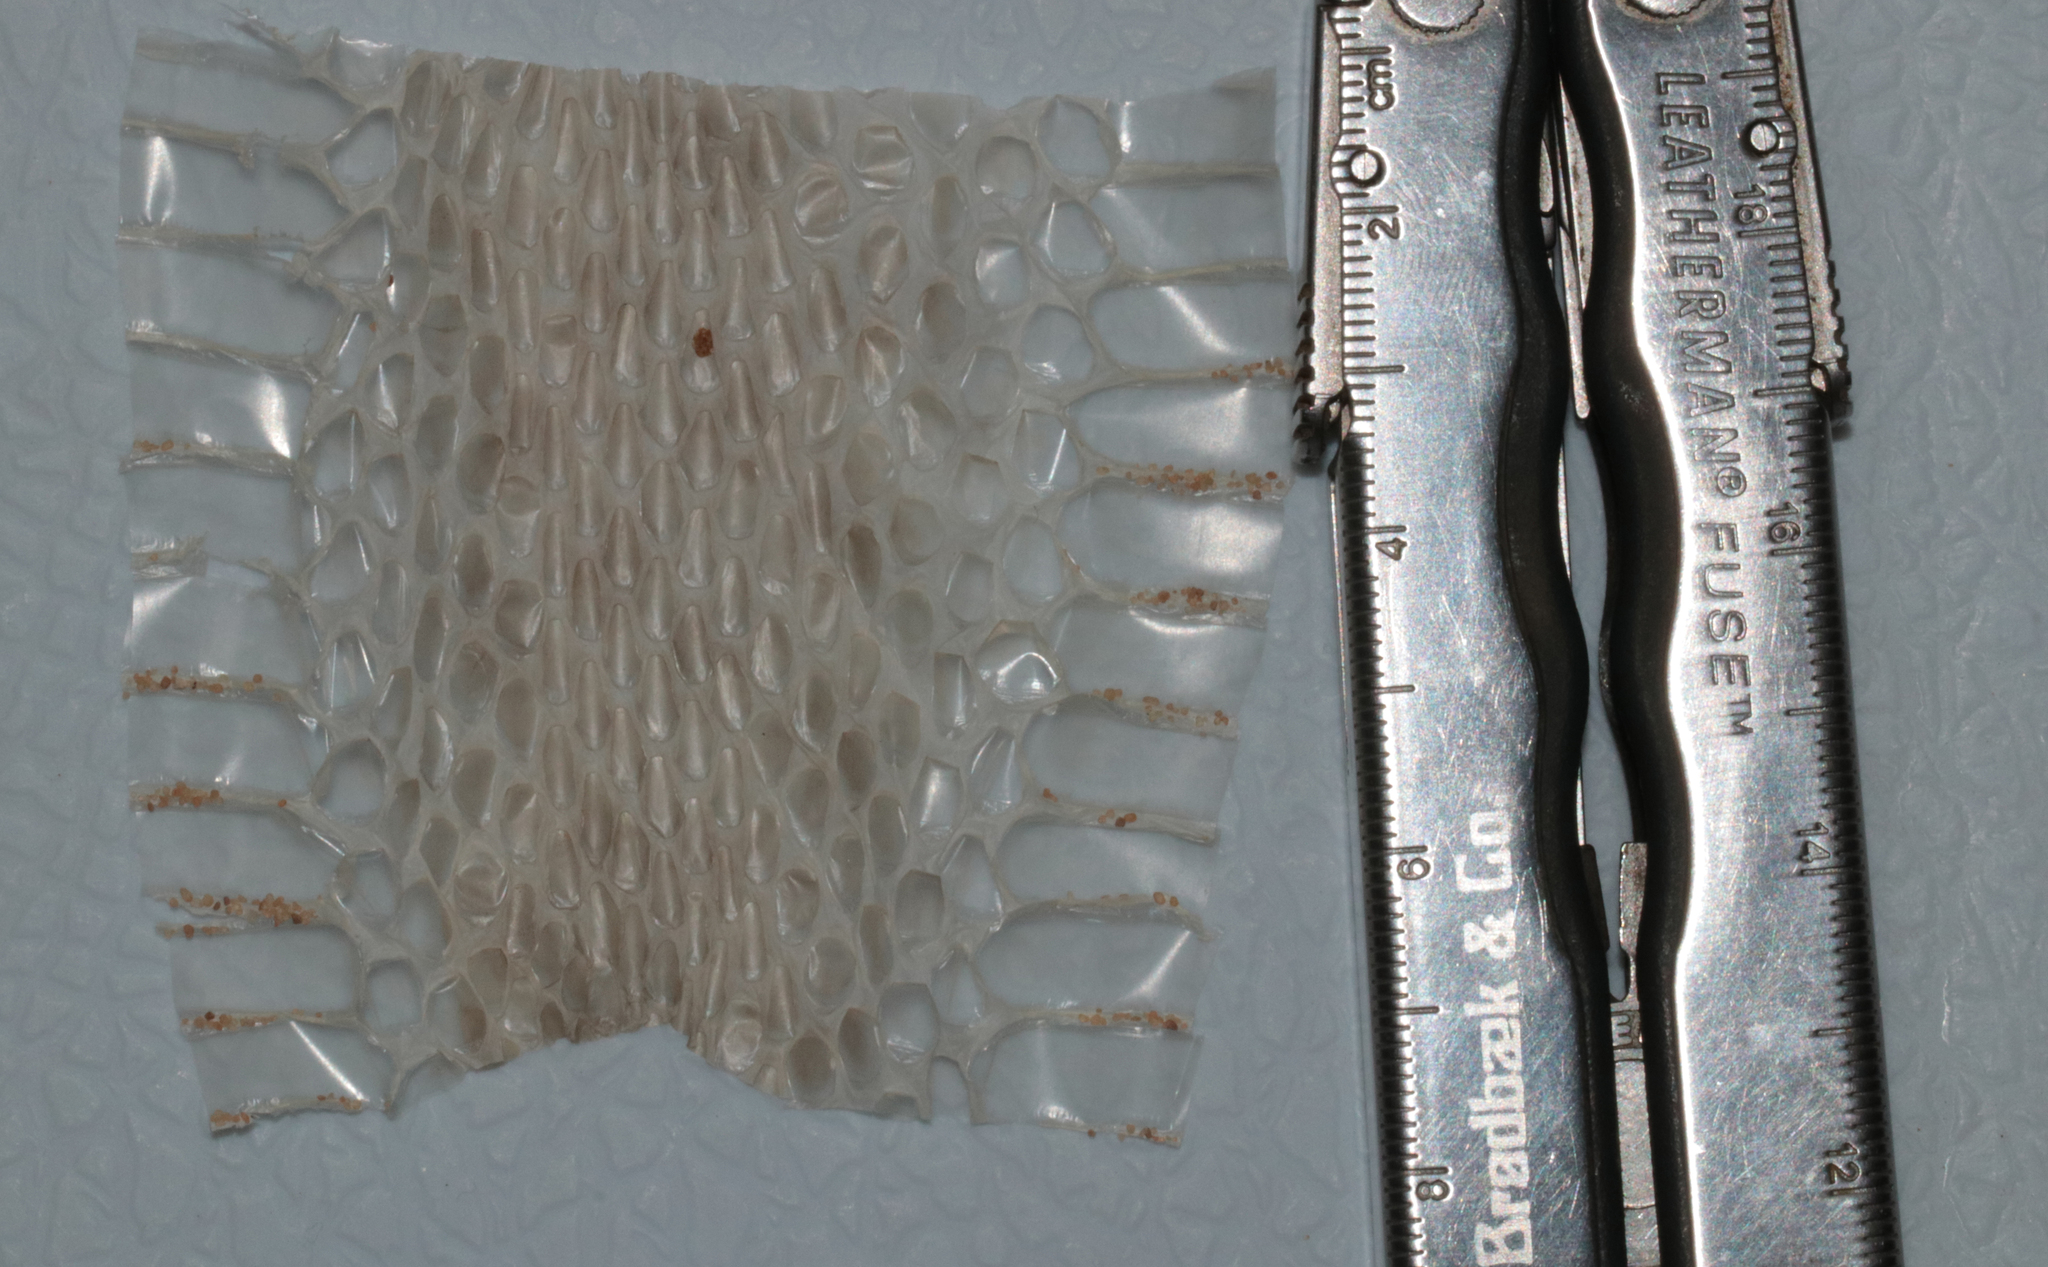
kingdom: Animalia
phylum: Chordata
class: Squamata
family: Psammophiidae
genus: Malpolon
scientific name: Malpolon moilensis
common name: Moila snake
